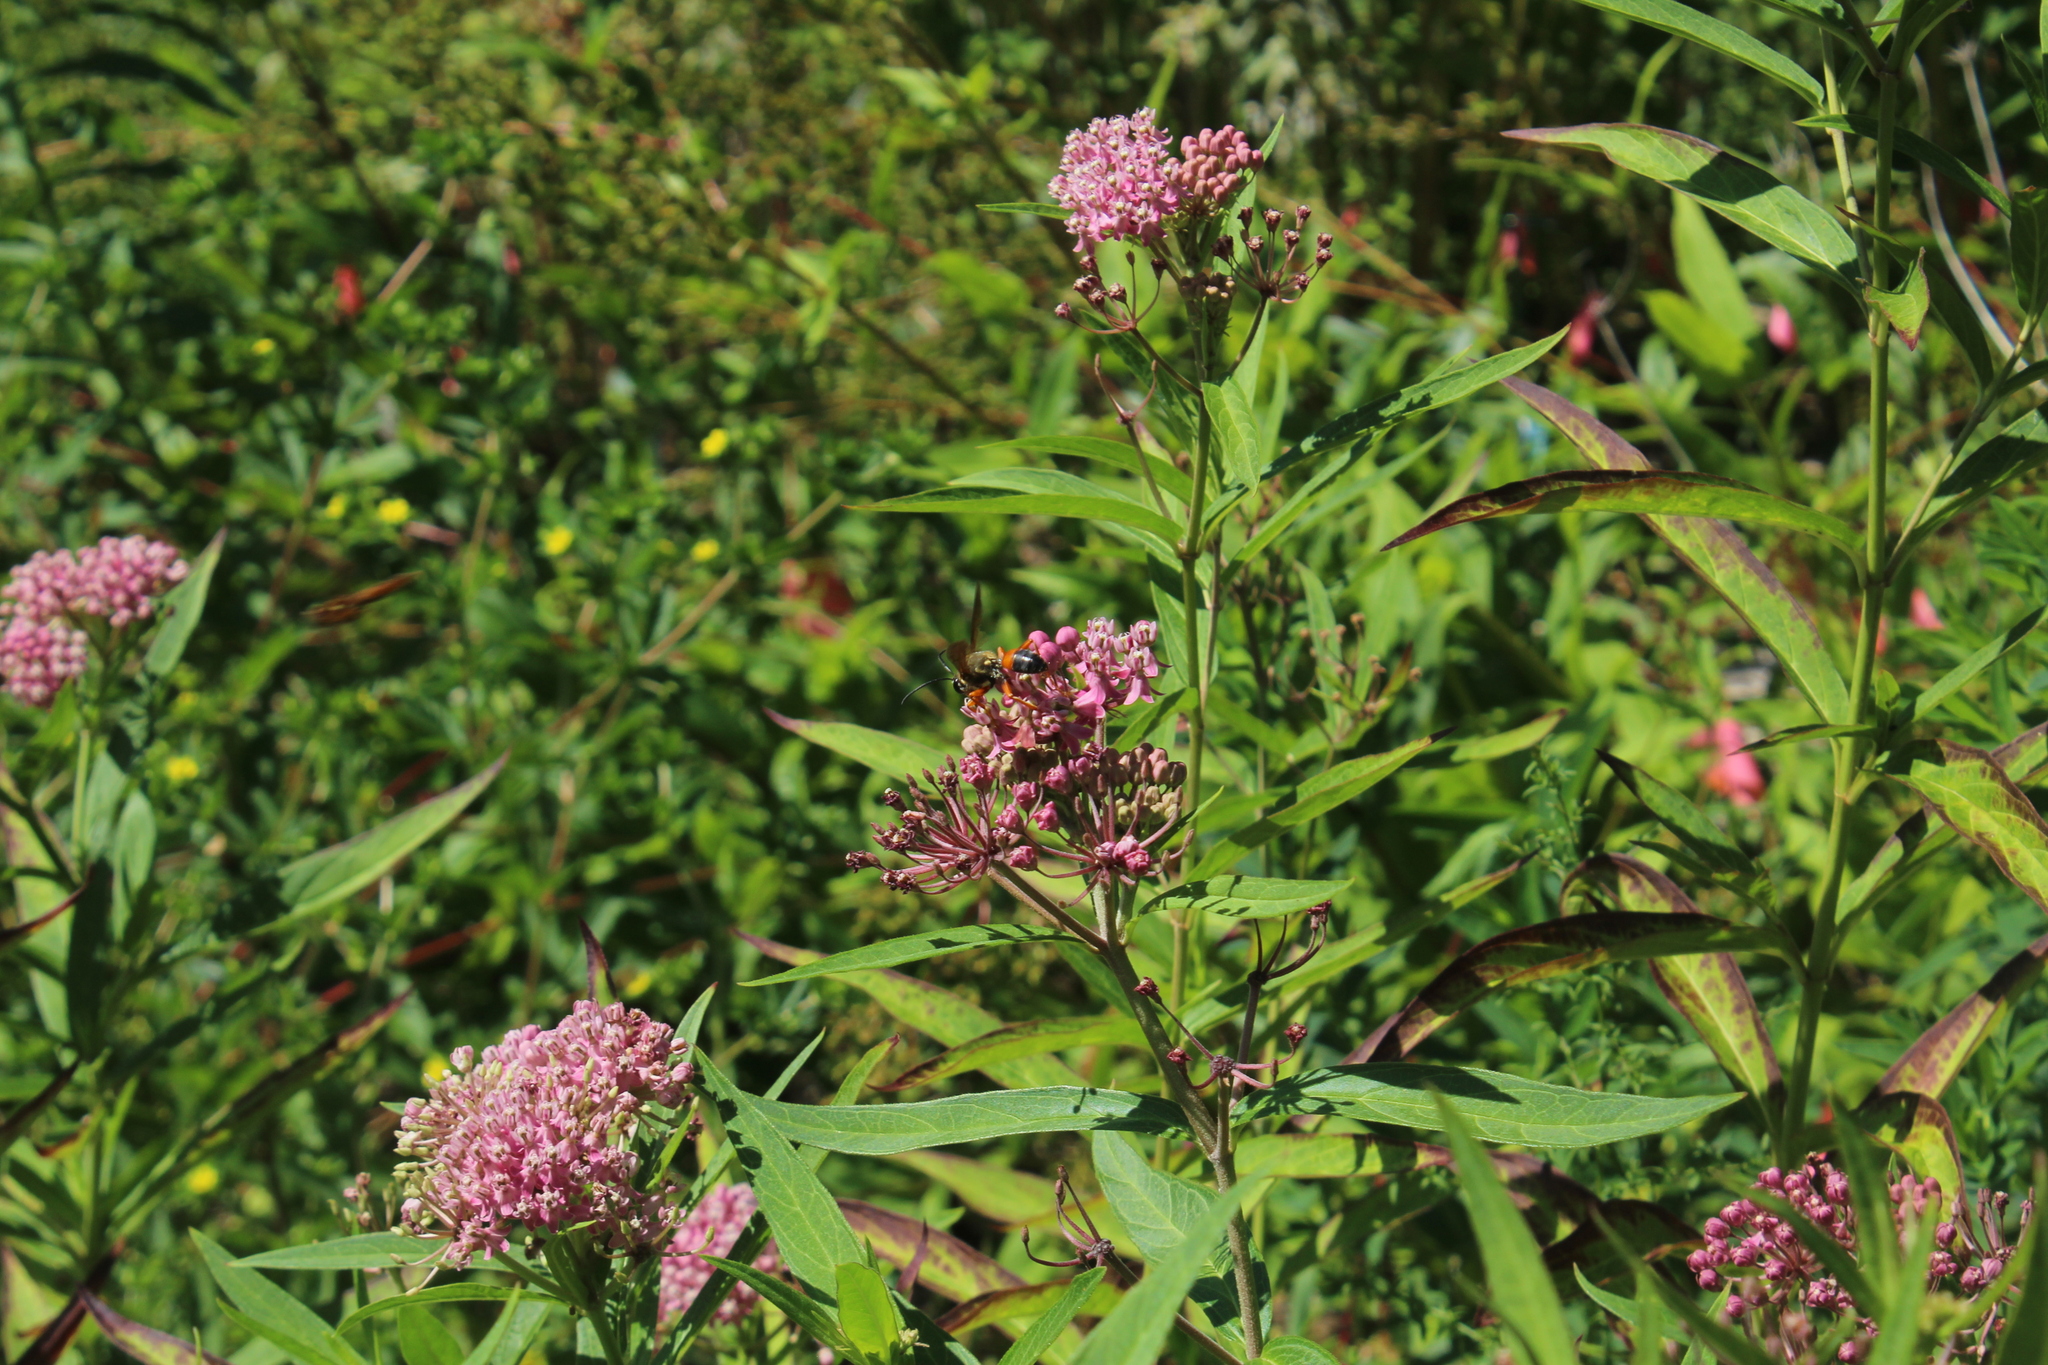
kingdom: Animalia
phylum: Arthropoda
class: Insecta
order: Hymenoptera
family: Sphecidae
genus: Sphex
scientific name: Sphex ichneumoneus
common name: Great golden digger wasp
